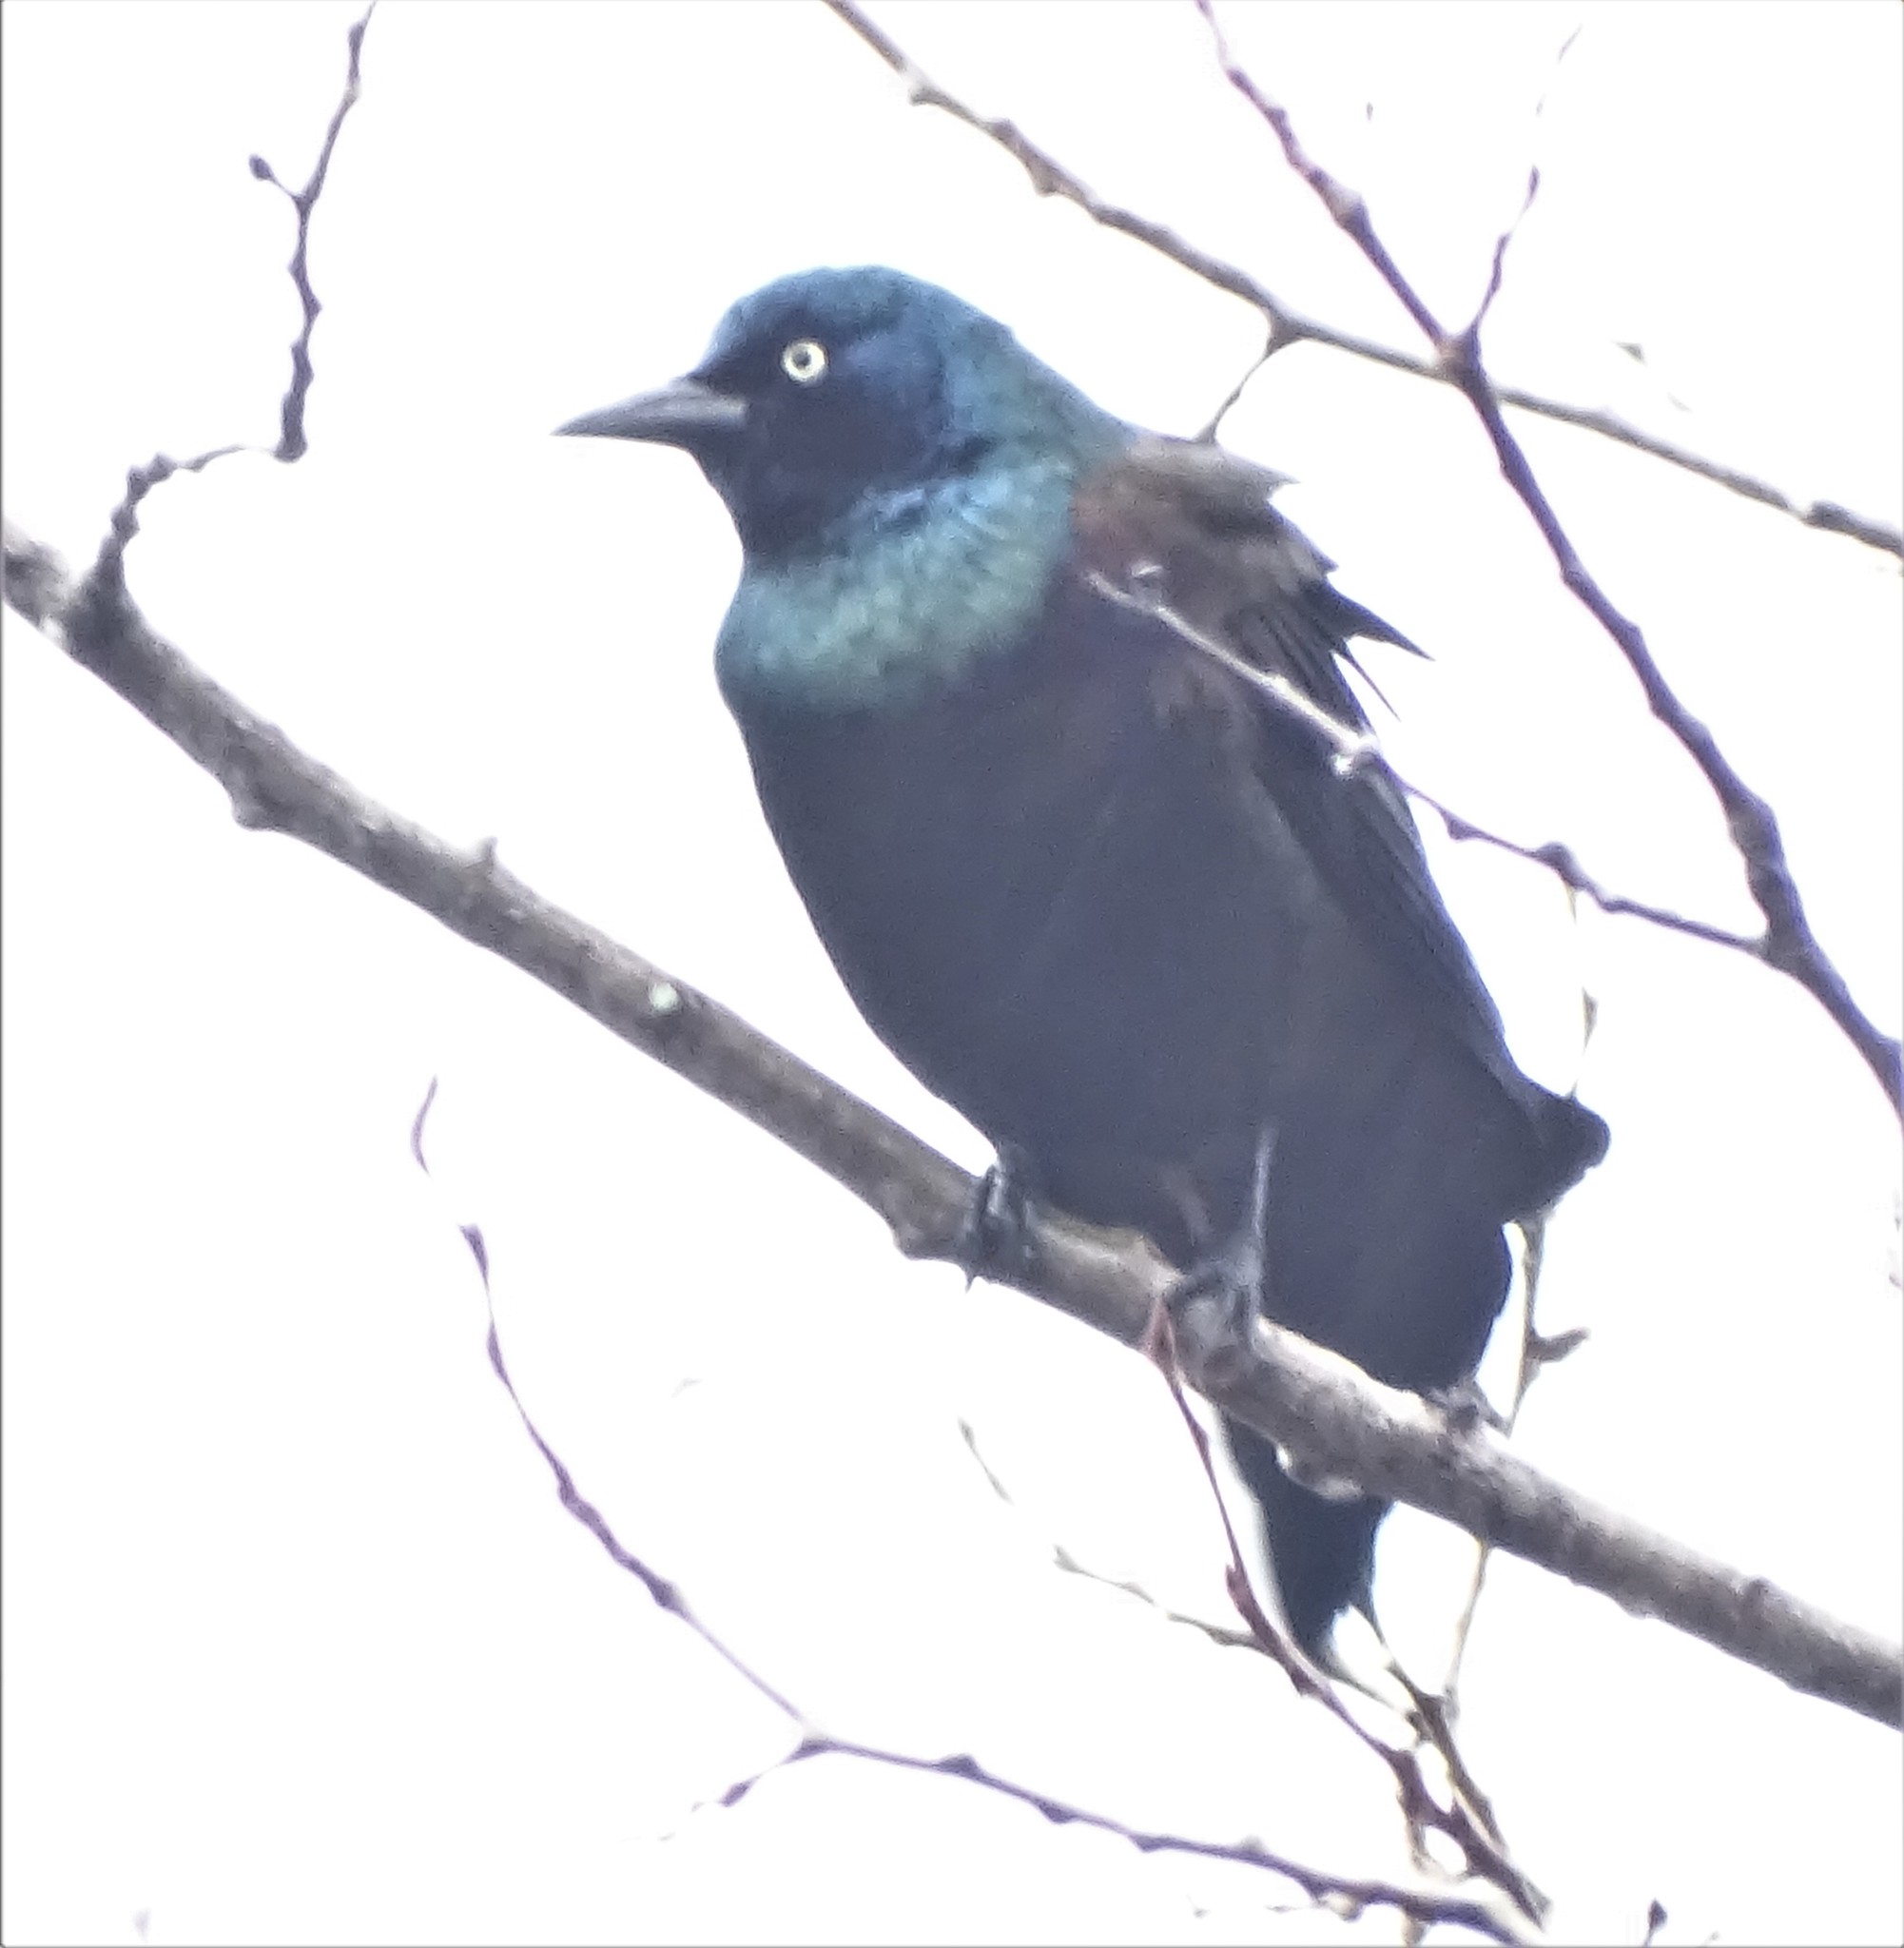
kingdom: Animalia
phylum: Chordata
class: Aves
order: Passeriformes
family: Icteridae
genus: Quiscalus
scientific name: Quiscalus quiscula
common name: Common grackle
